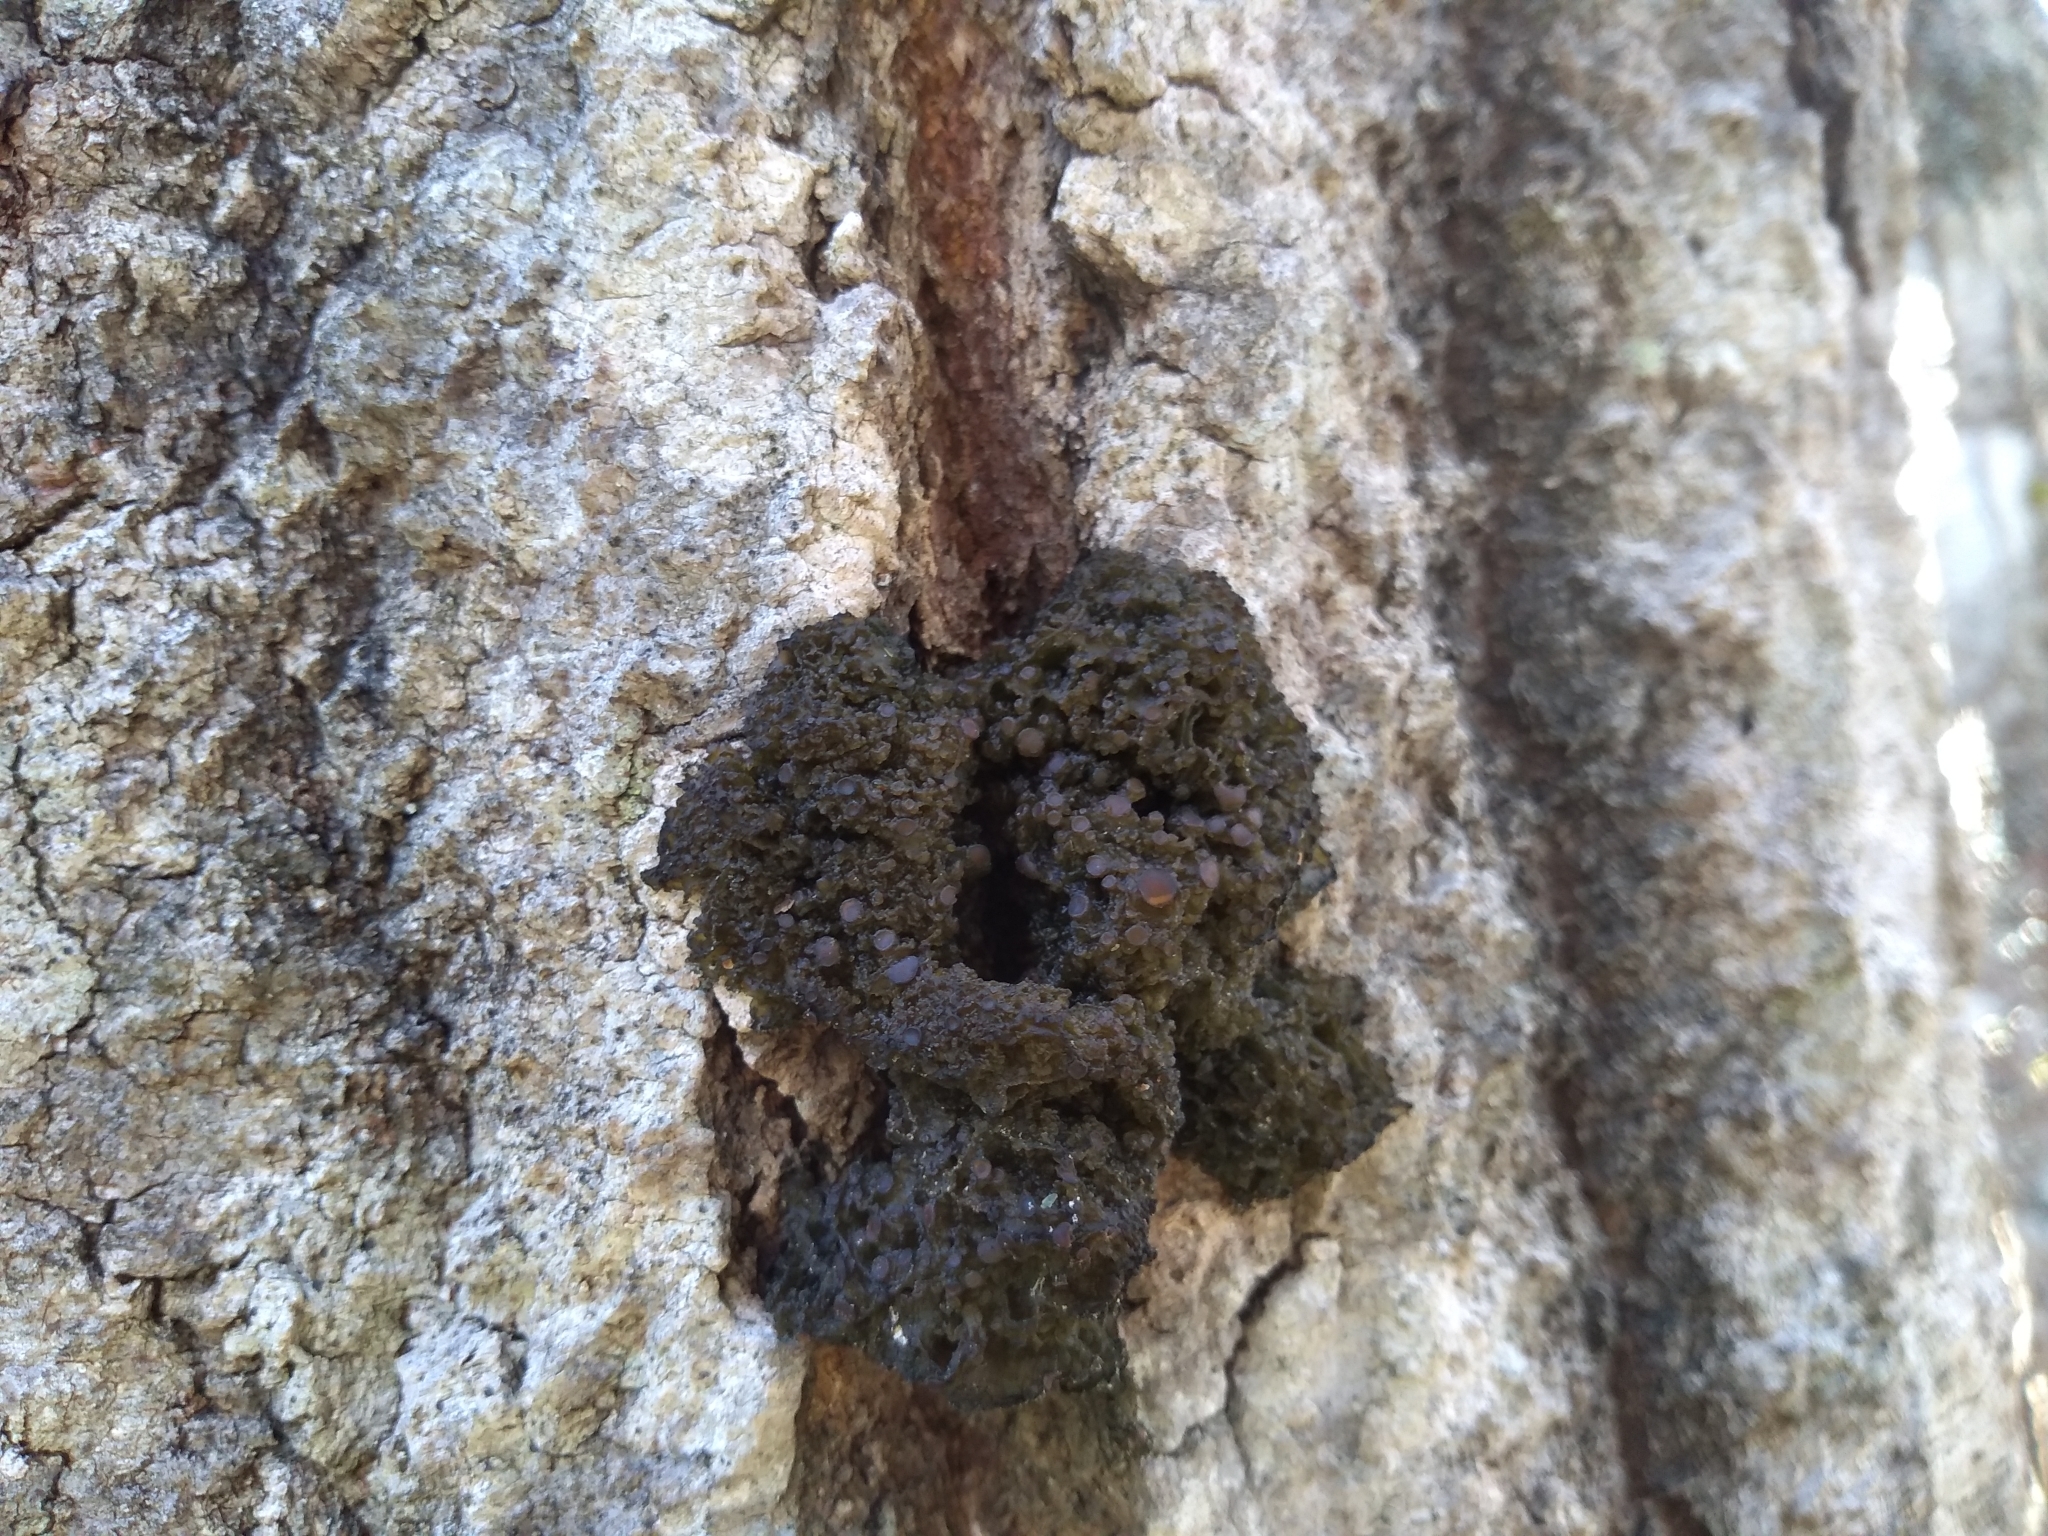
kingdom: Fungi
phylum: Ascomycota
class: Lecanoromycetes
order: Peltigerales
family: Collemataceae
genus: Collema
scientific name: Collema leptaleum
